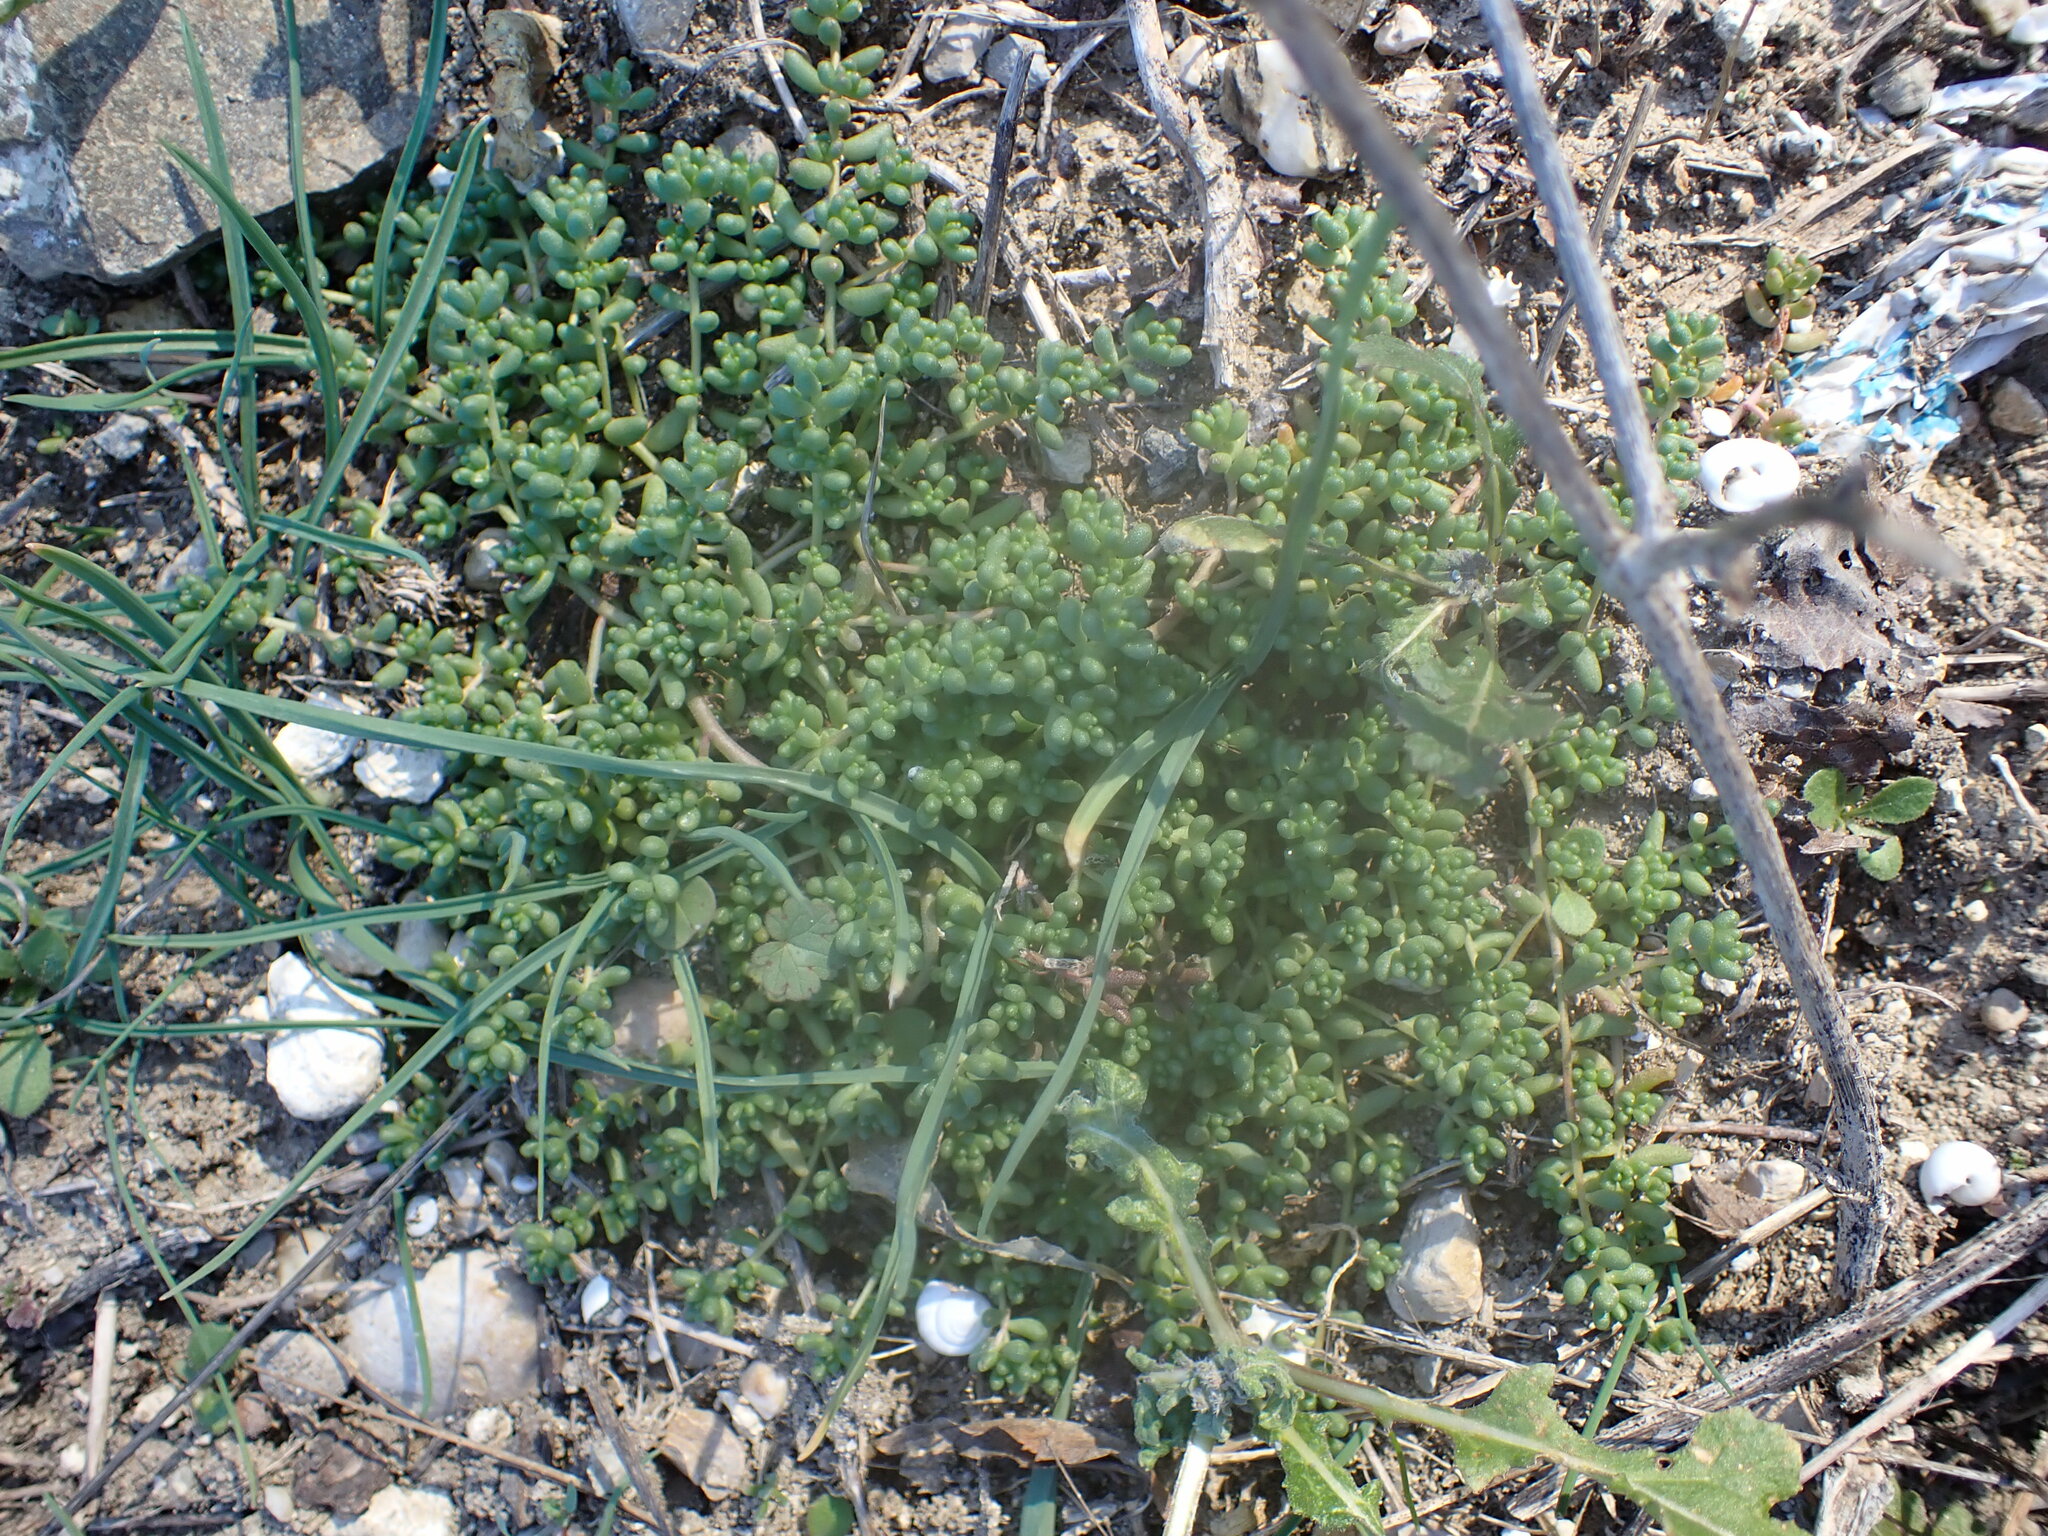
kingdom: Plantae
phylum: Tracheophyta
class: Magnoliopsida
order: Saxifragales
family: Crassulaceae
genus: Sedum
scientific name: Sedum album
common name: White stonecrop
